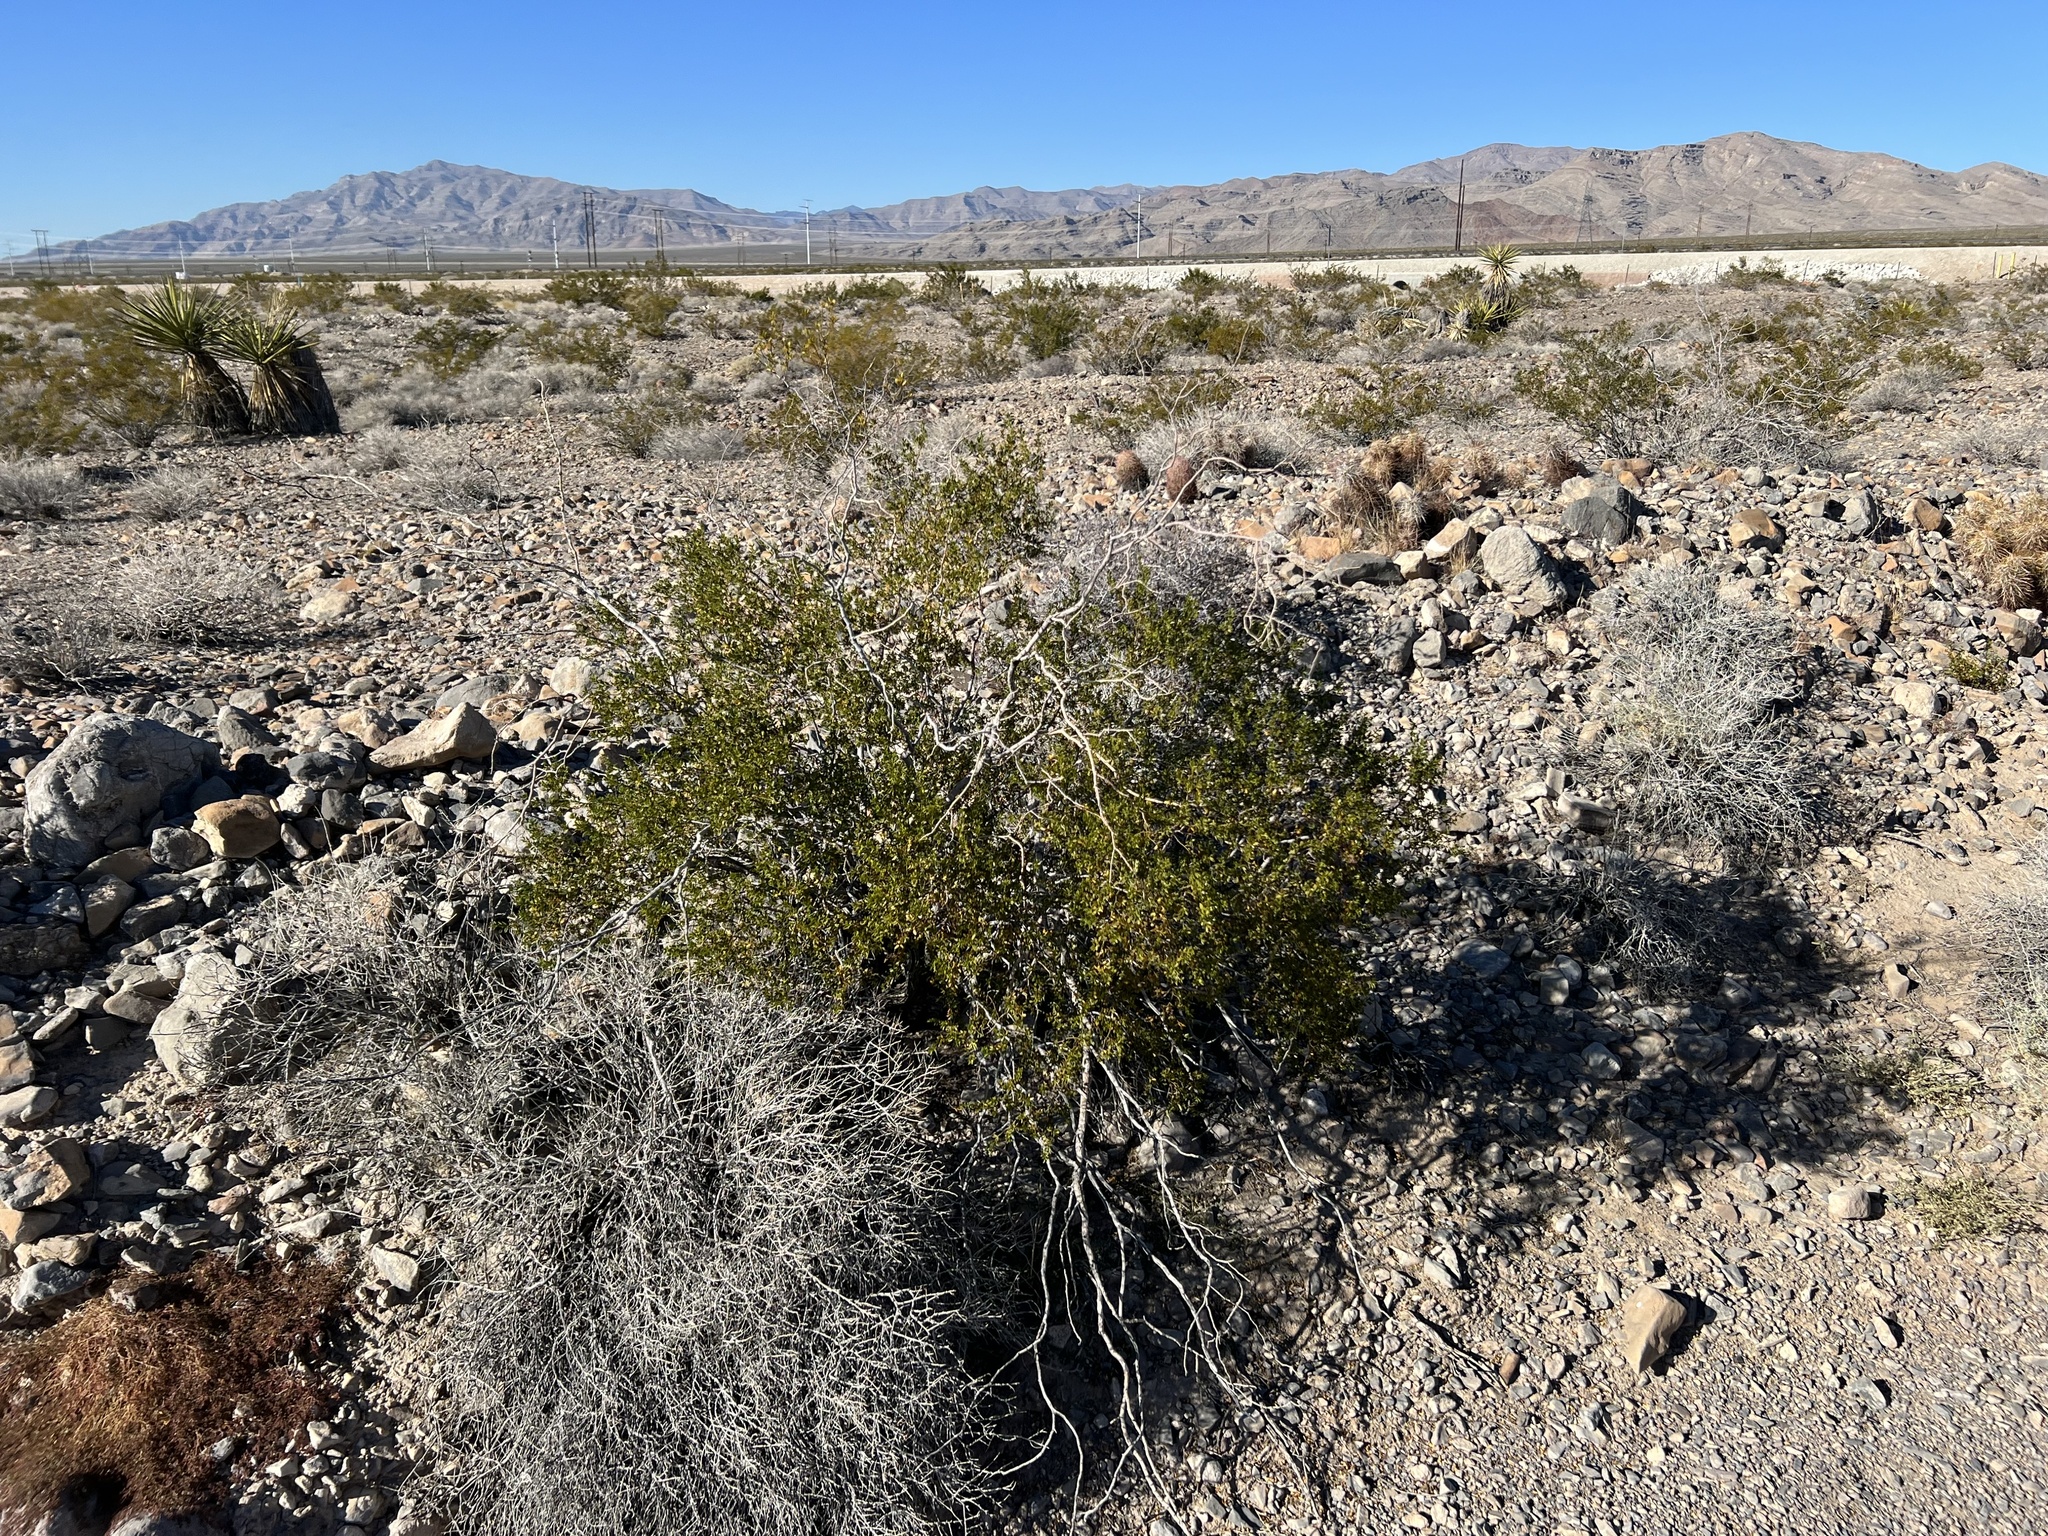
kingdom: Plantae
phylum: Tracheophyta
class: Magnoliopsida
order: Zygophyllales
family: Zygophyllaceae
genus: Larrea
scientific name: Larrea tridentata
